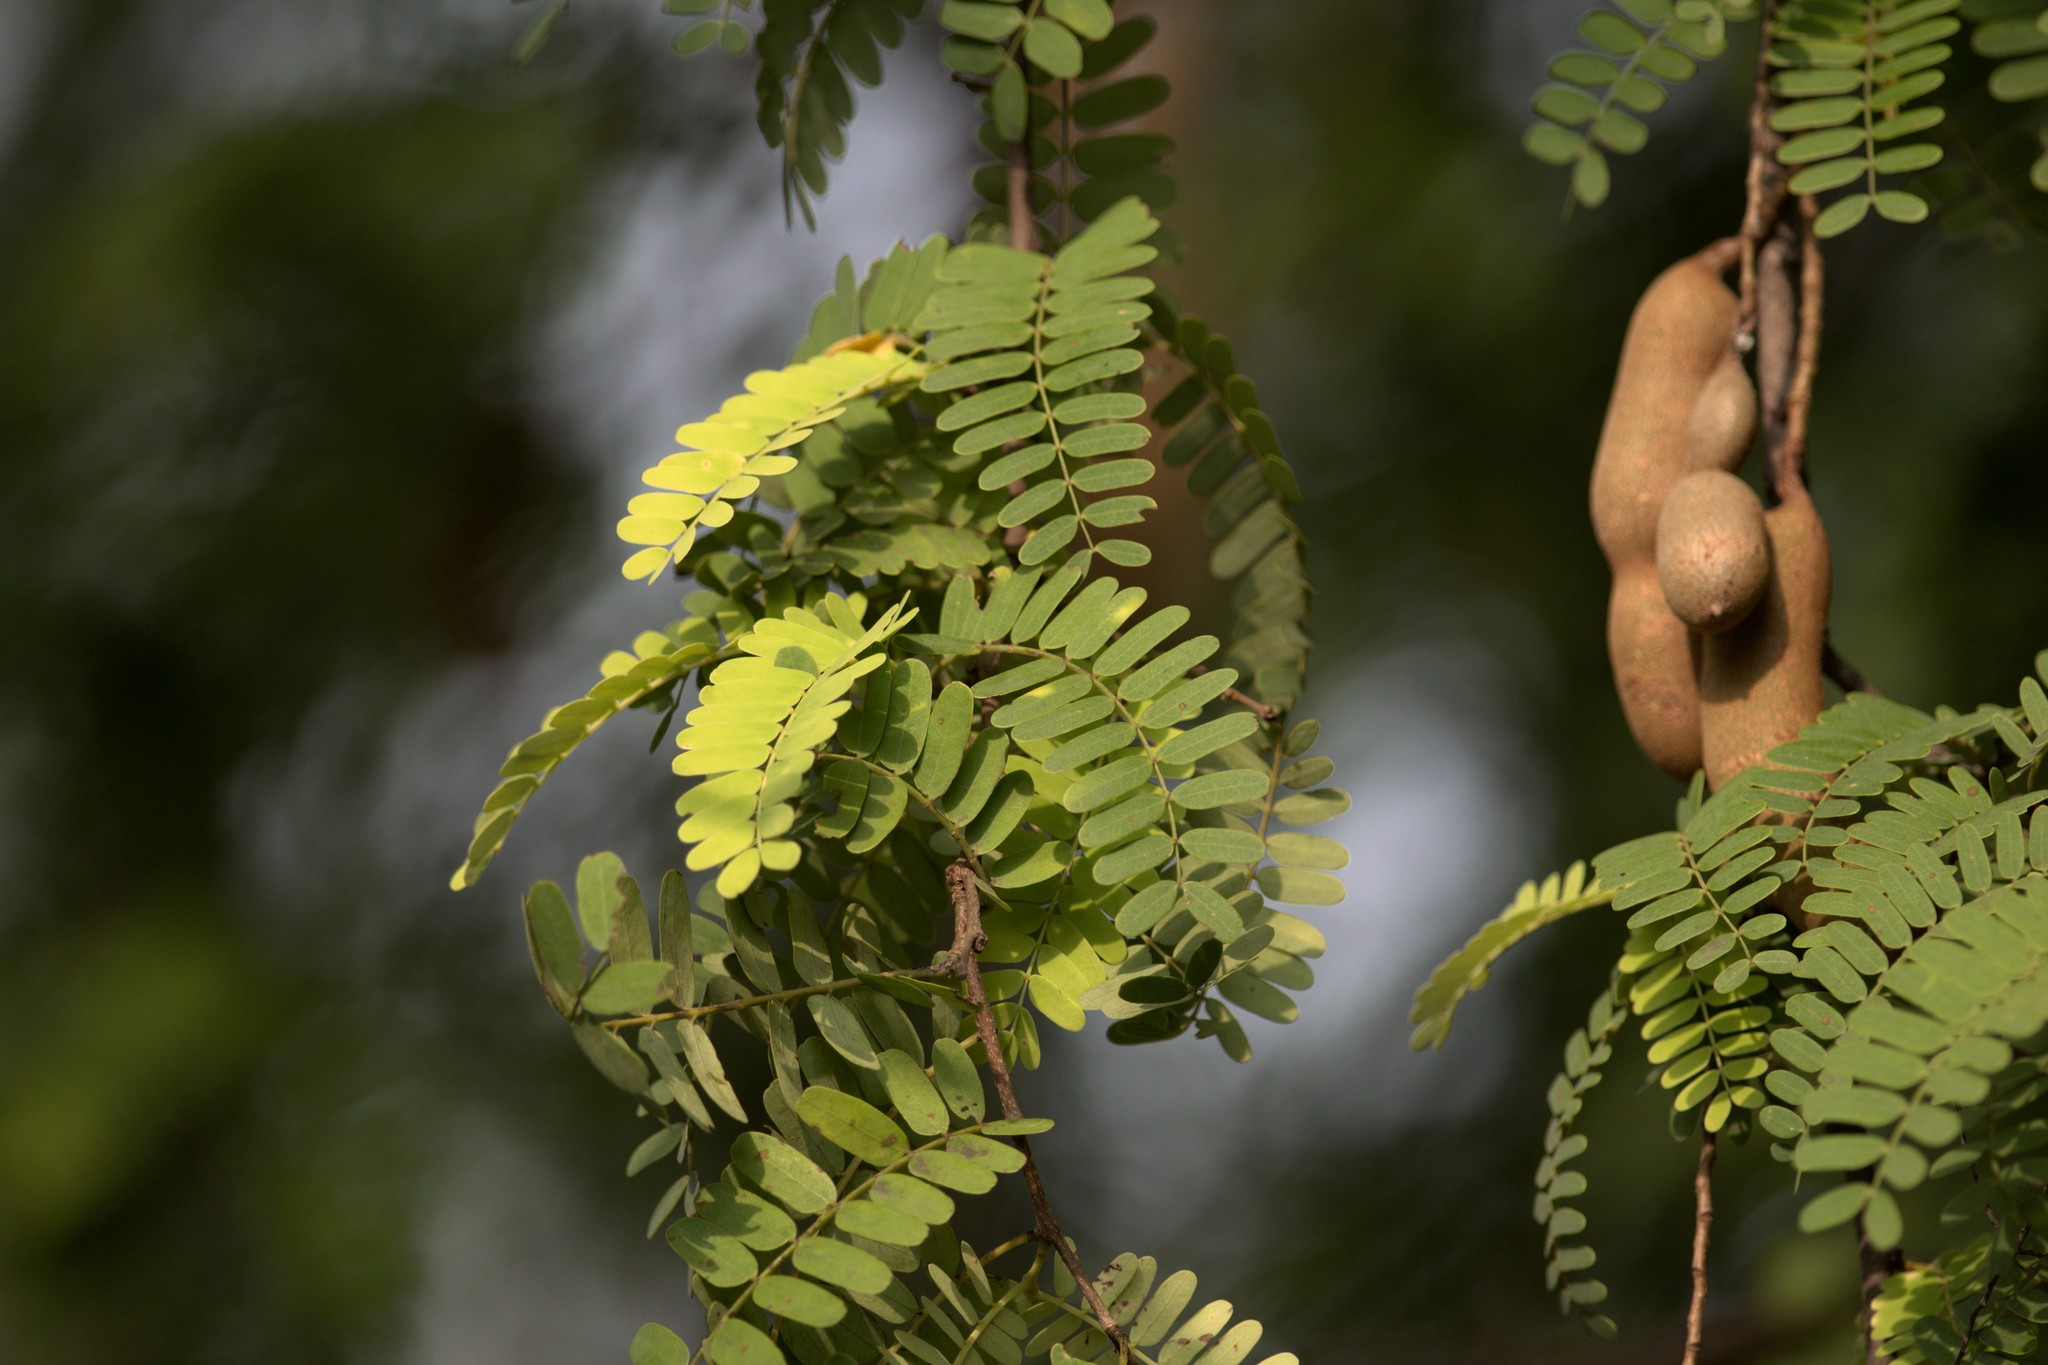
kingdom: Plantae
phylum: Tracheophyta
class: Magnoliopsida
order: Fabales
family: Fabaceae
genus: Tamarindus
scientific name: Tamarindus indica
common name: Tamarind
